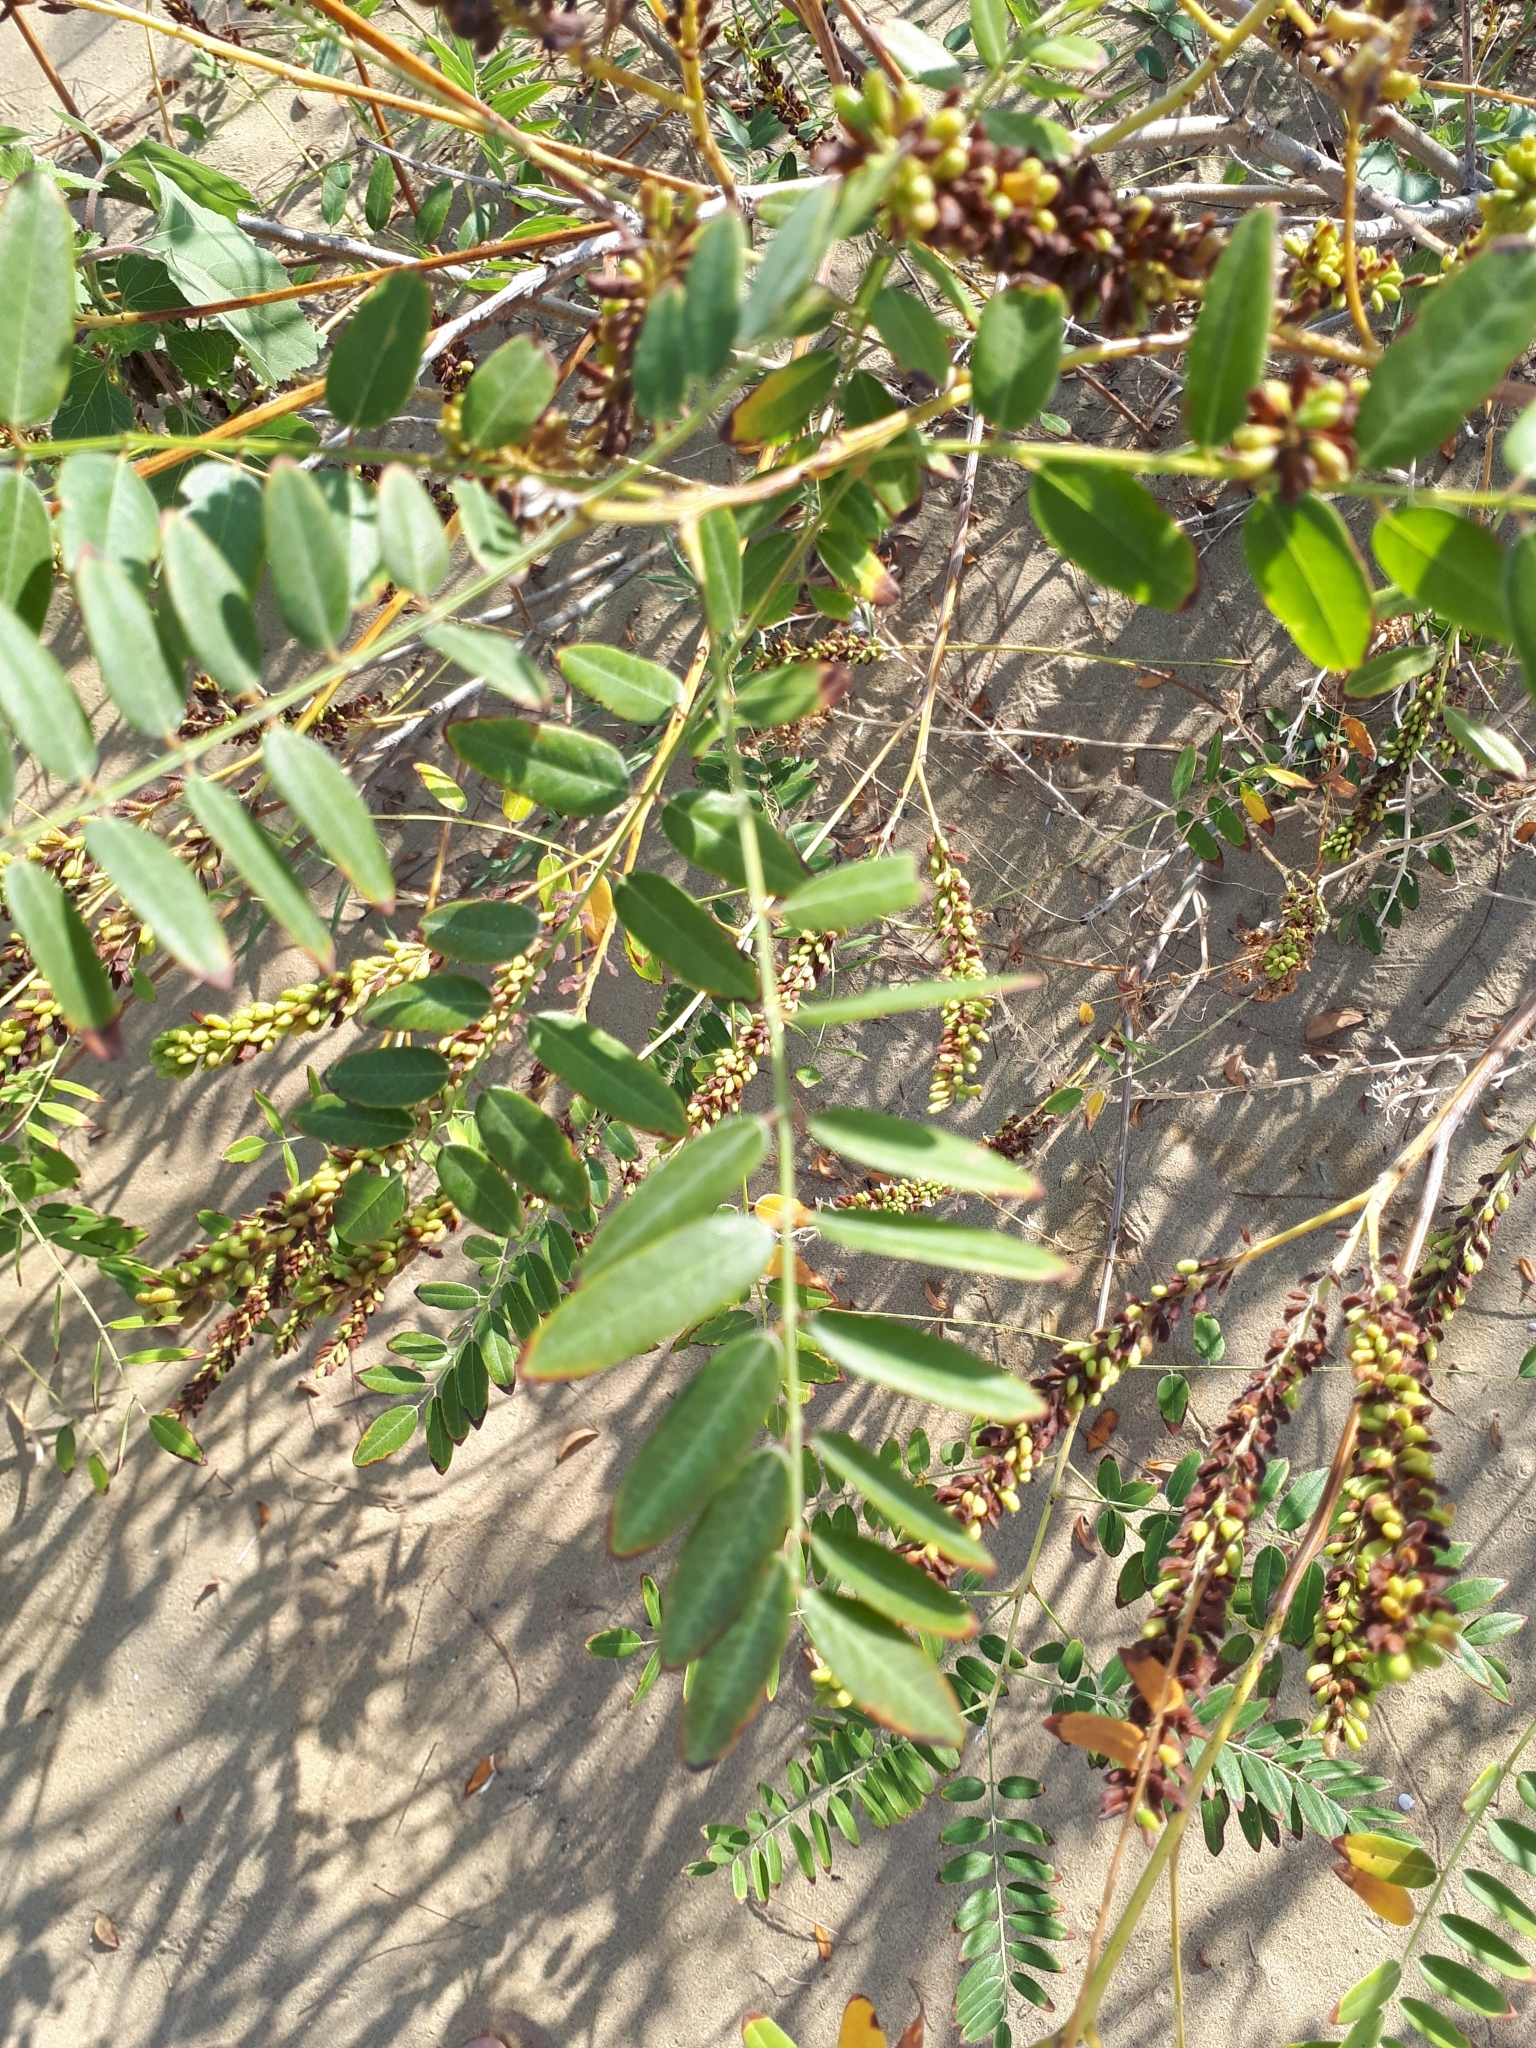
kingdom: Plantae
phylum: Tracheophyta
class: Magnoliopsida
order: Fabales
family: Fabaceae
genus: Amorpha
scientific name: Amorpha fruticosa
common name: False indigo
